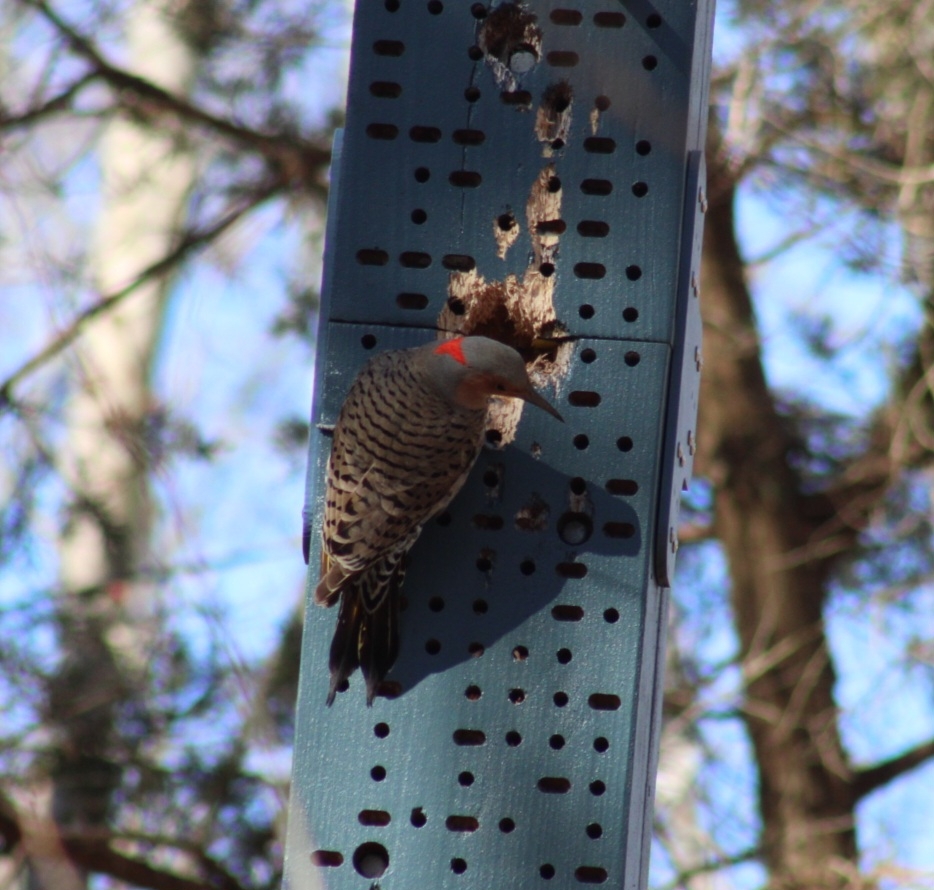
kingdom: Animalia
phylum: Chordata
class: Aves
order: Piciformes
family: Picidae
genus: Colaptes
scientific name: Colaptes auratus
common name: Northern flicker
